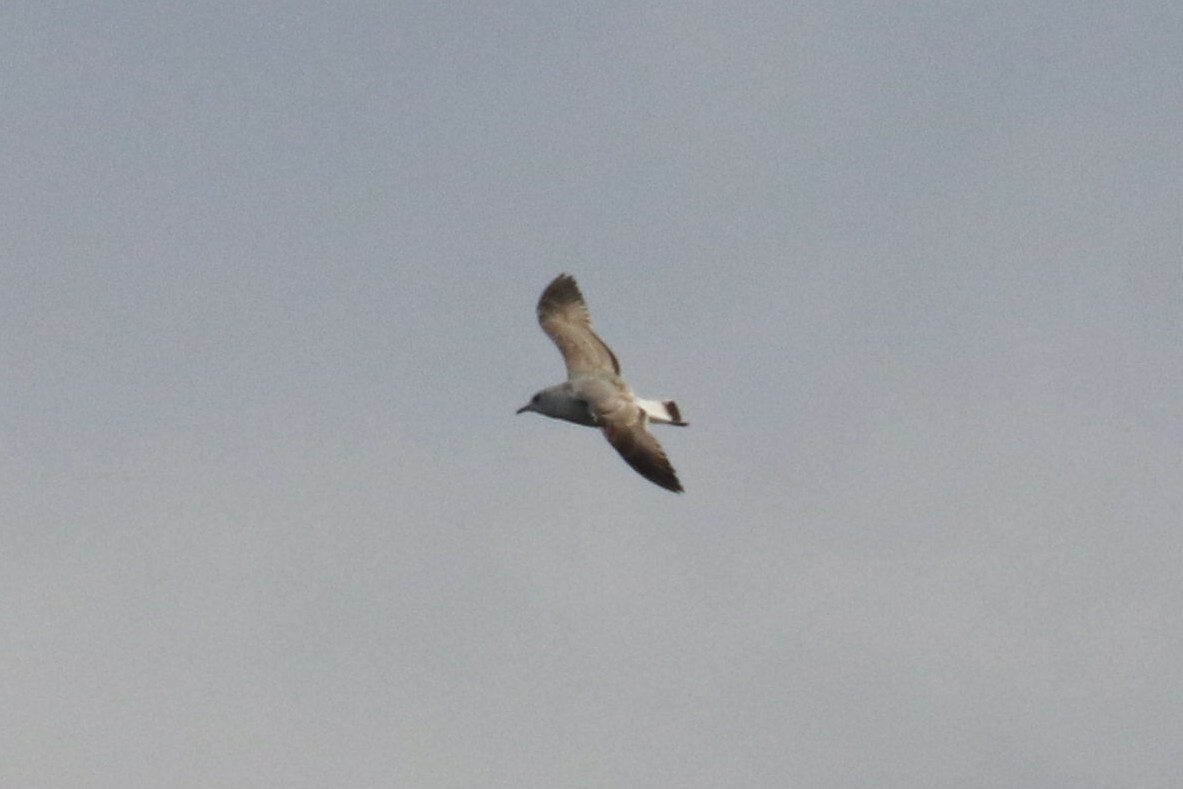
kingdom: Animalia
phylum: Chordata
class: Aves
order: Charadriiformes
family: Laridae
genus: Larus
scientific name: Larus canus
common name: Mew gull
